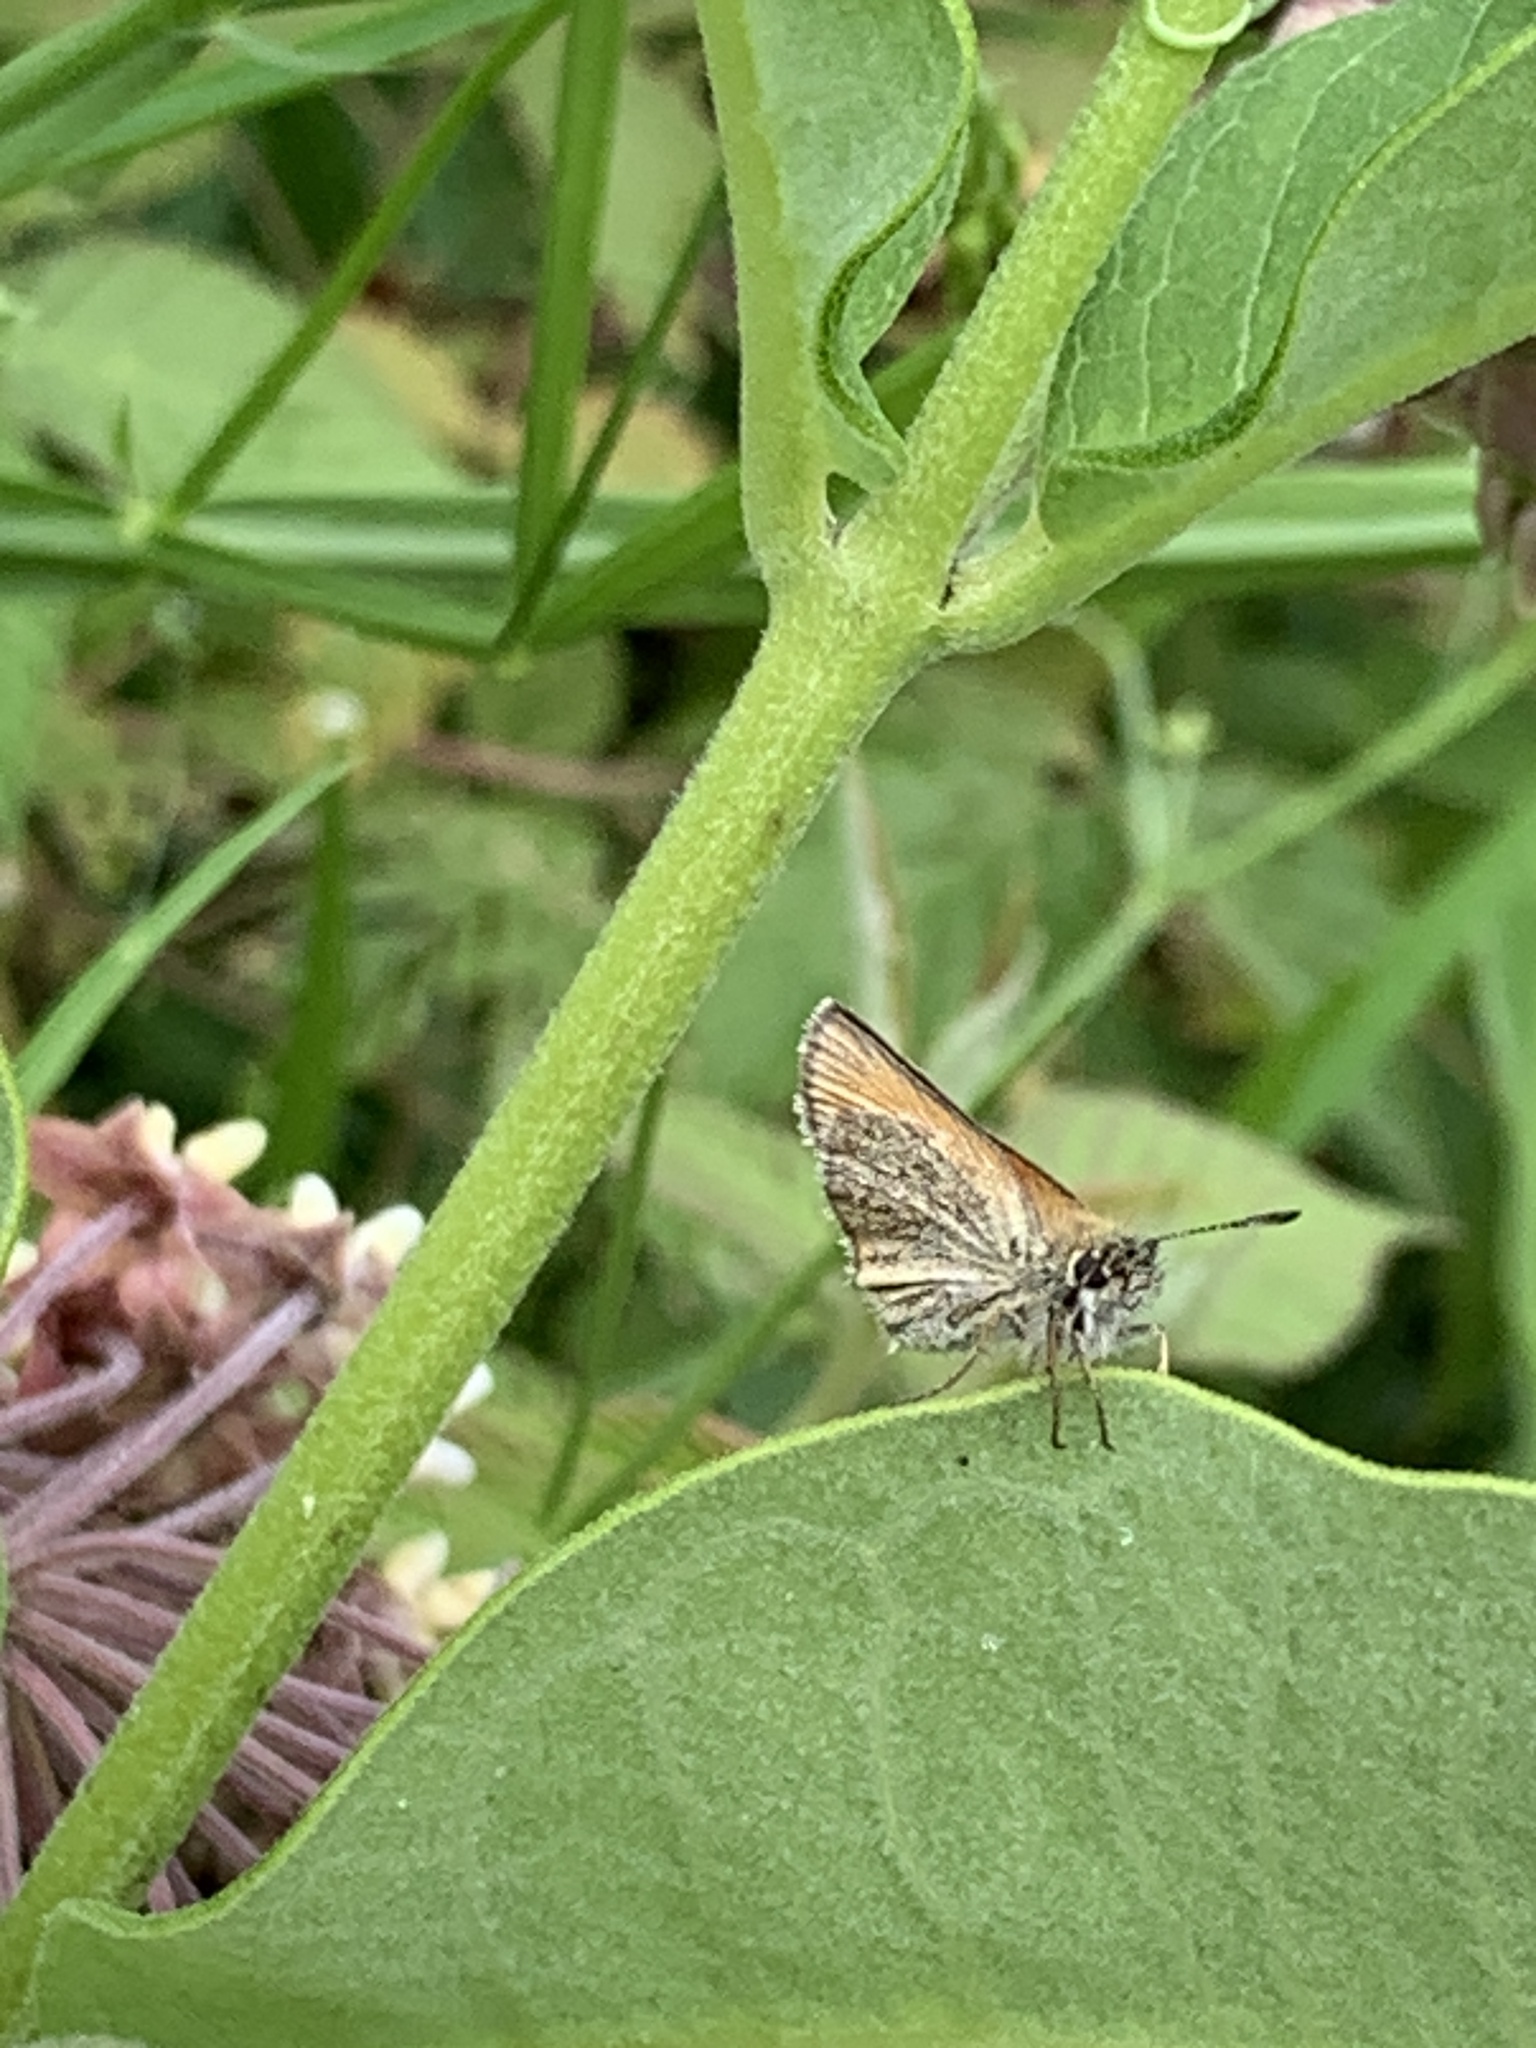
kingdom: Animalia
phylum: Arthropoda
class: Insecta
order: Lepidoptera
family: Hesperiidae
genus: Thymelicus
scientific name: Thymelicus lineola
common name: Essex skipper
